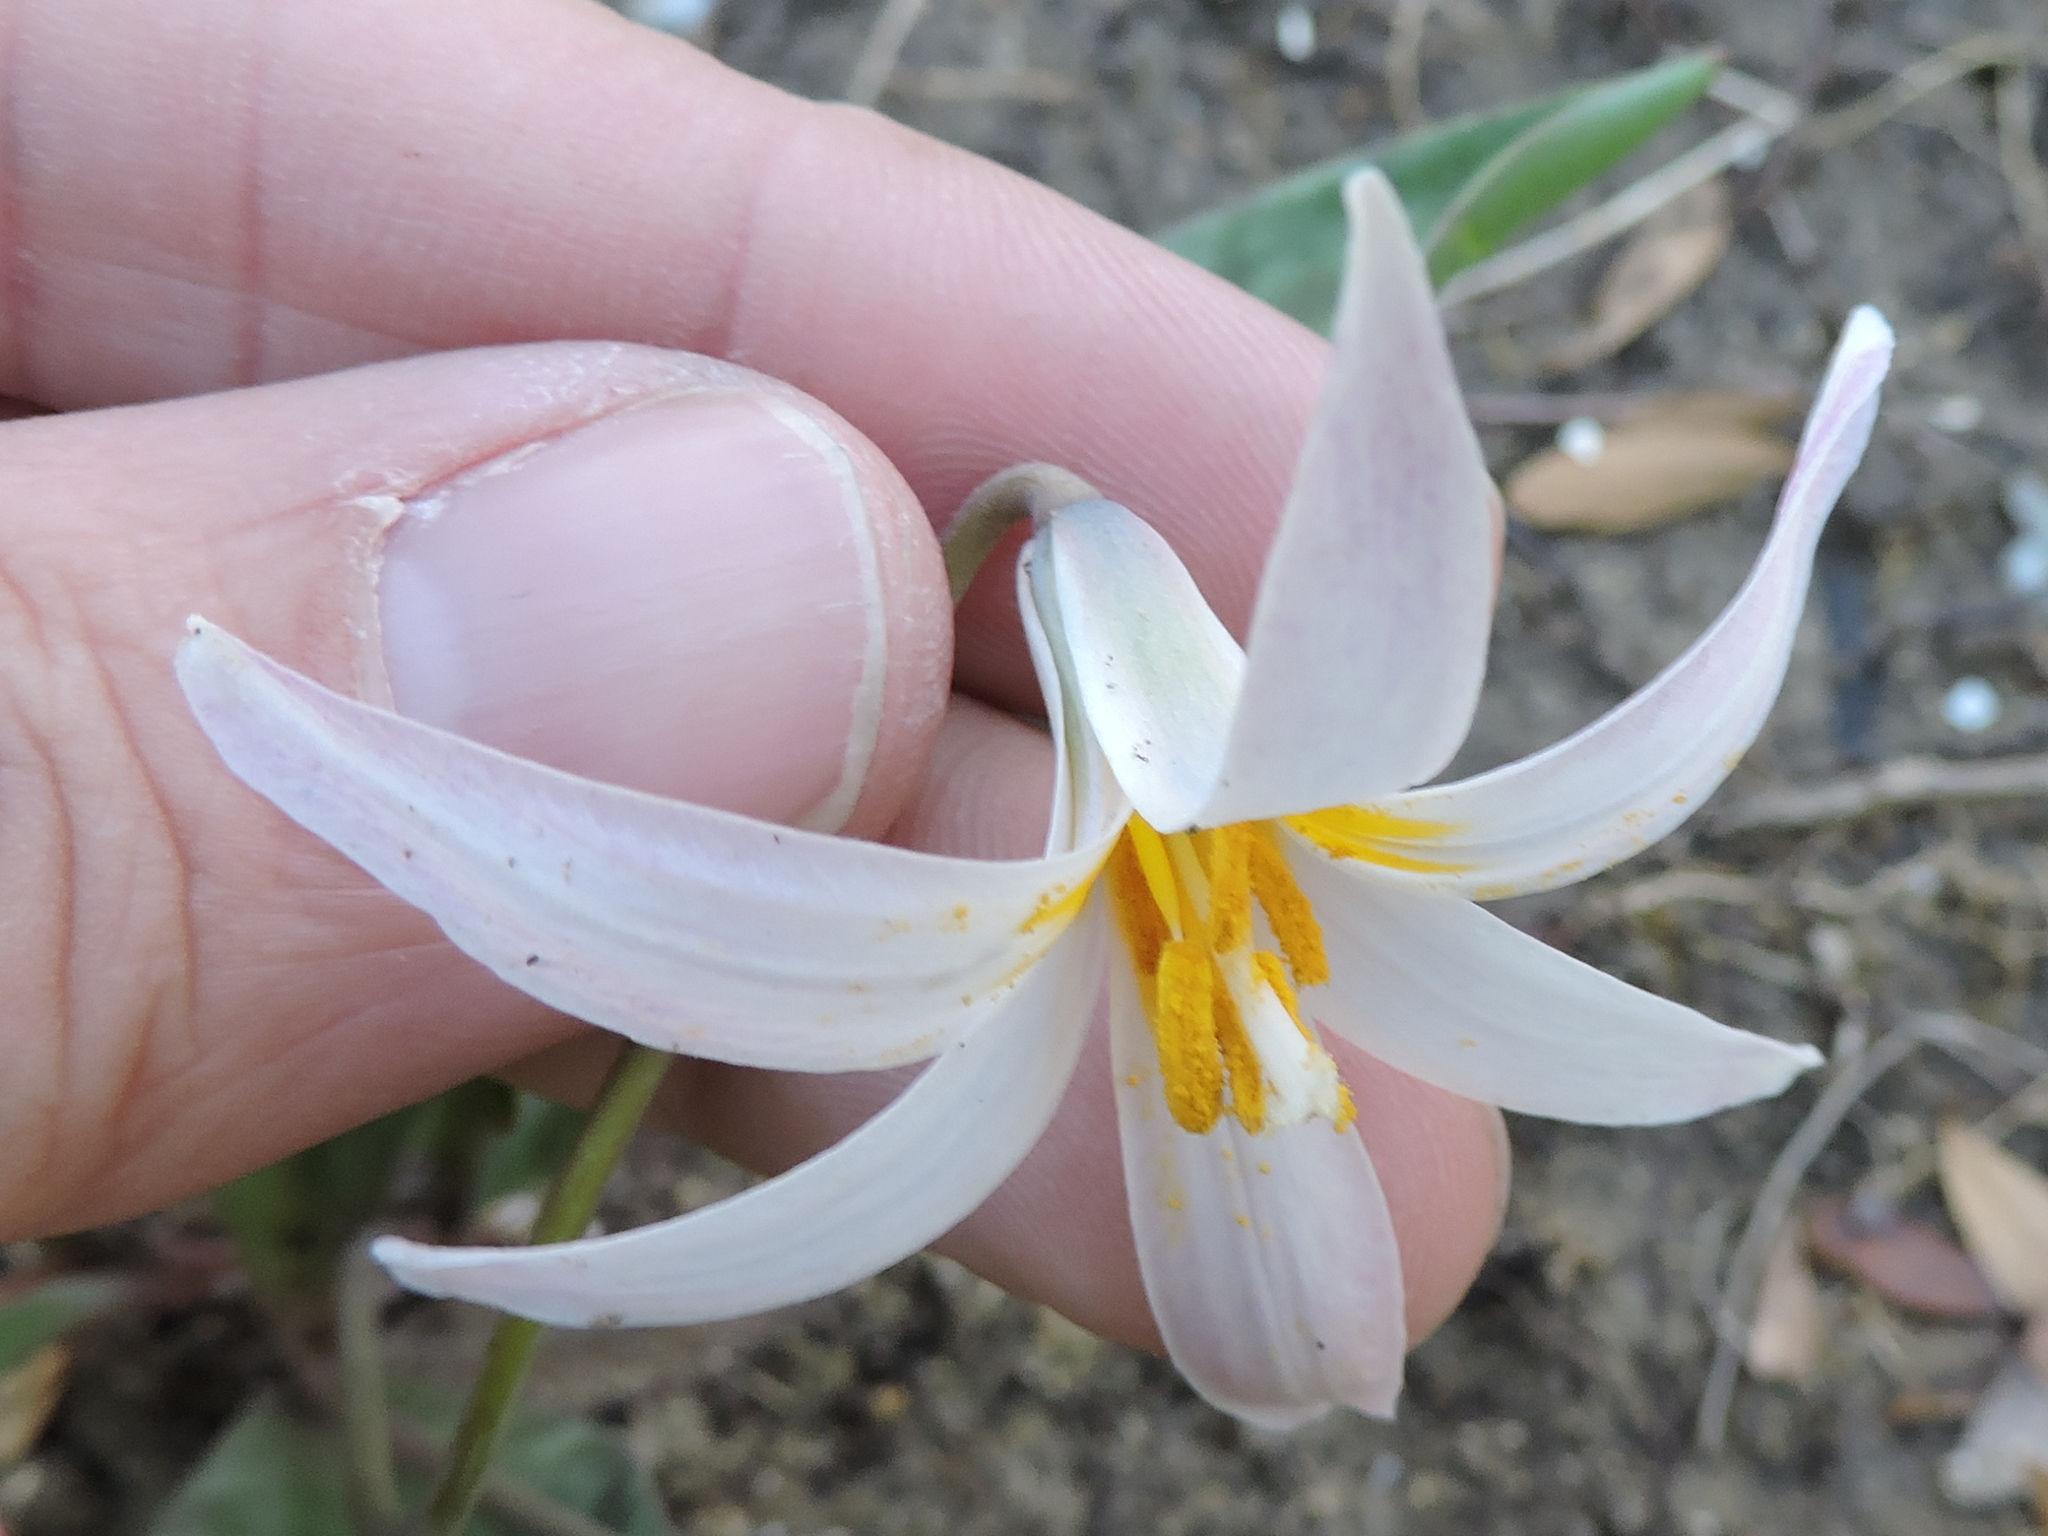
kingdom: Plantae
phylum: Tracheophyta
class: Liliopsida
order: Liliales
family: Liliaceae
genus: Erythronium
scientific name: Erythronium albidum
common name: White trout-lily
